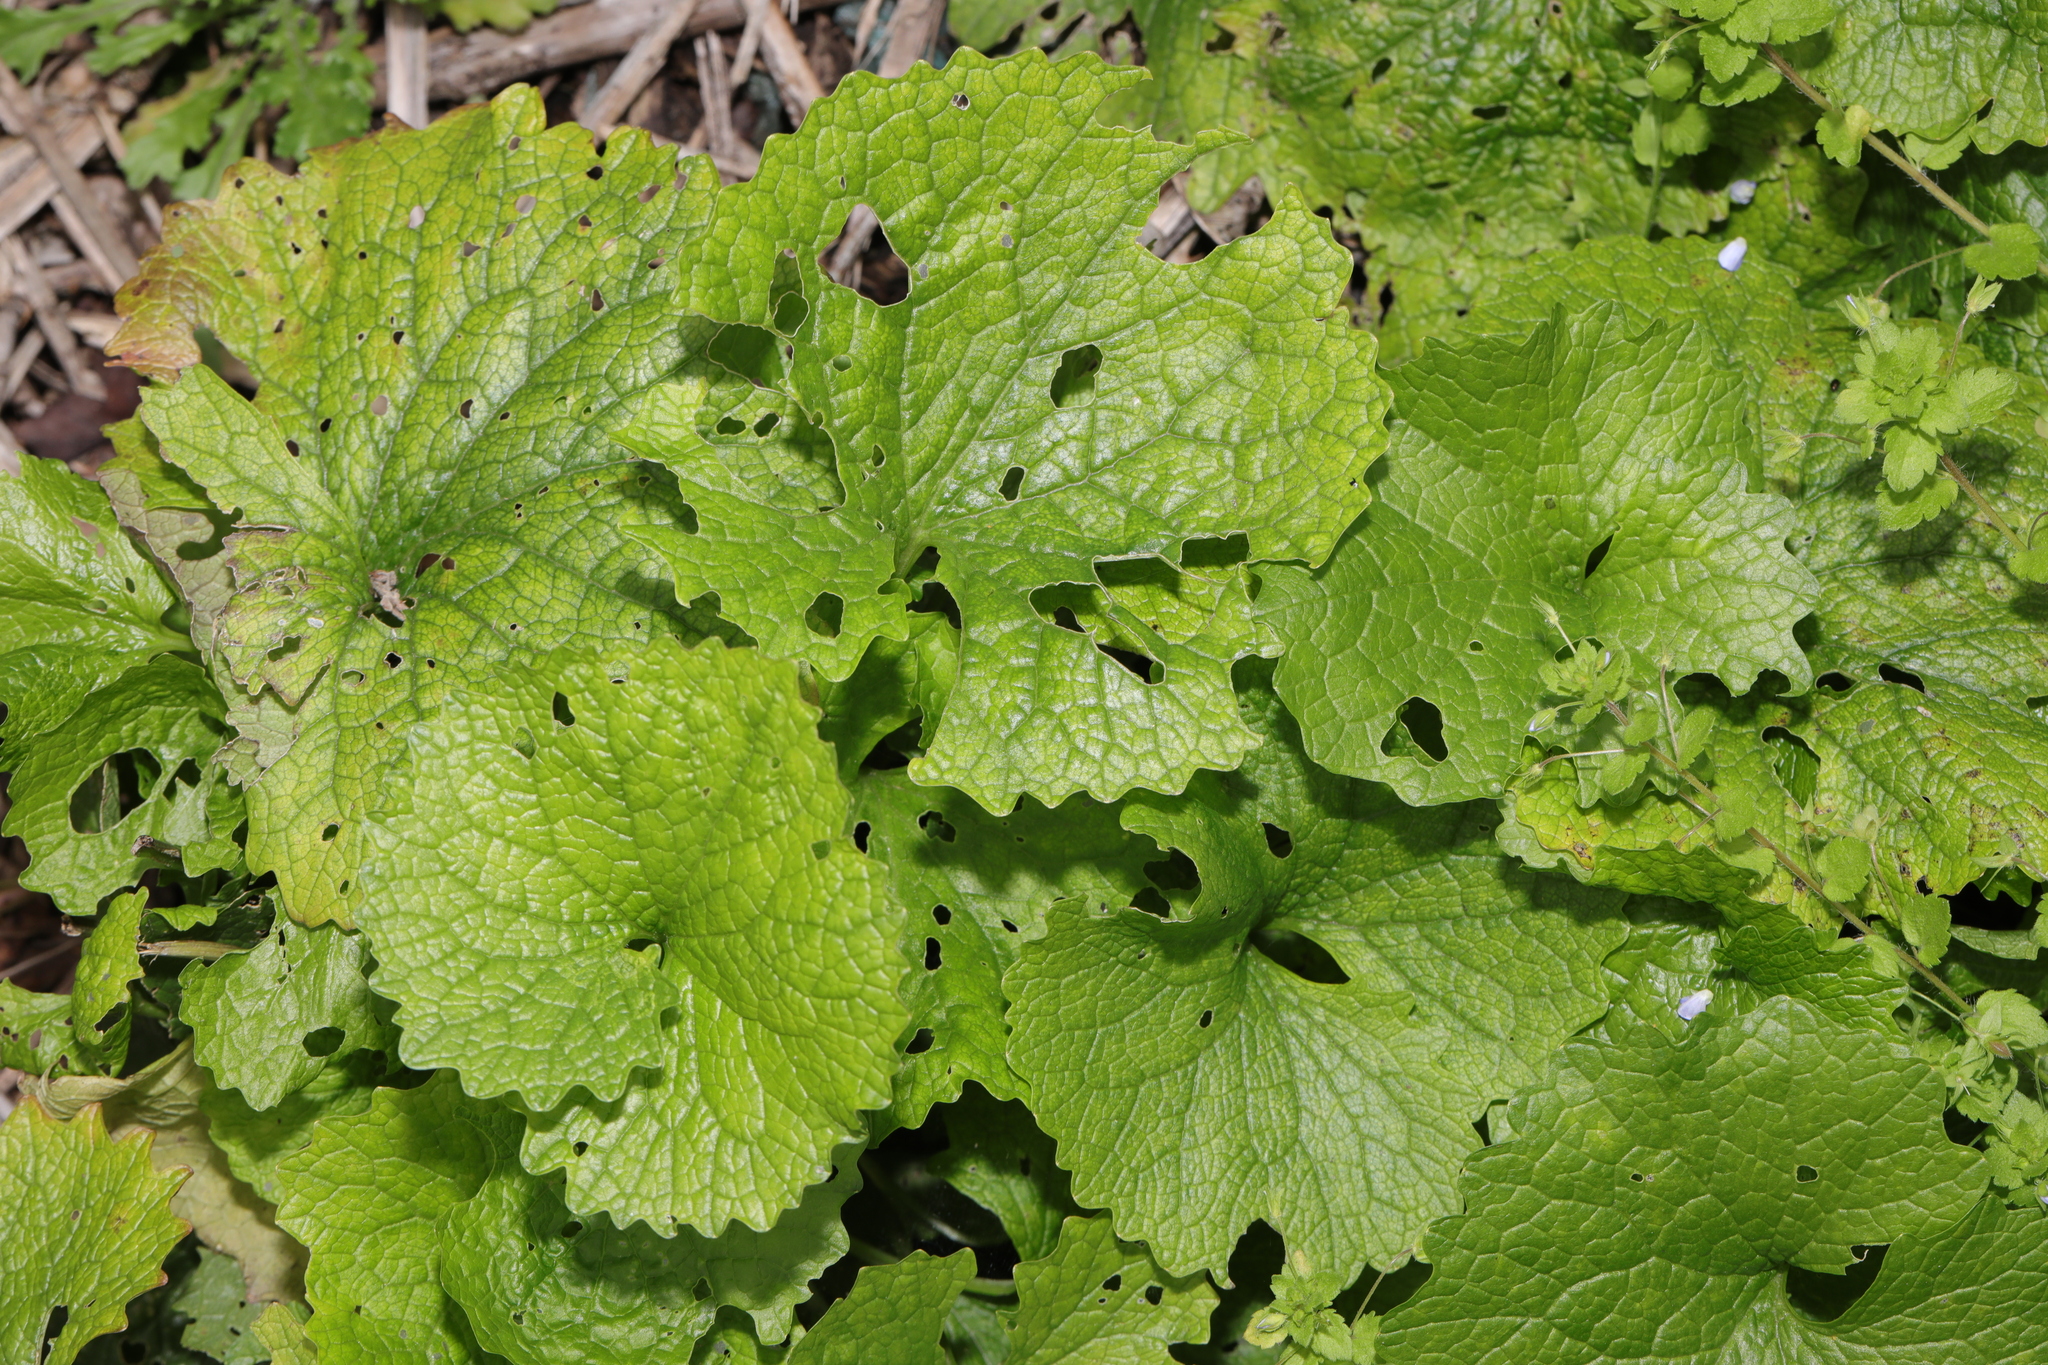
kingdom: Plantae
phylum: Tracheophyta
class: Magnoliopsida
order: Brassicales
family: Brassicaceae
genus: Alliaria
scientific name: Alliaria petiolata
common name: Garlic mustard
